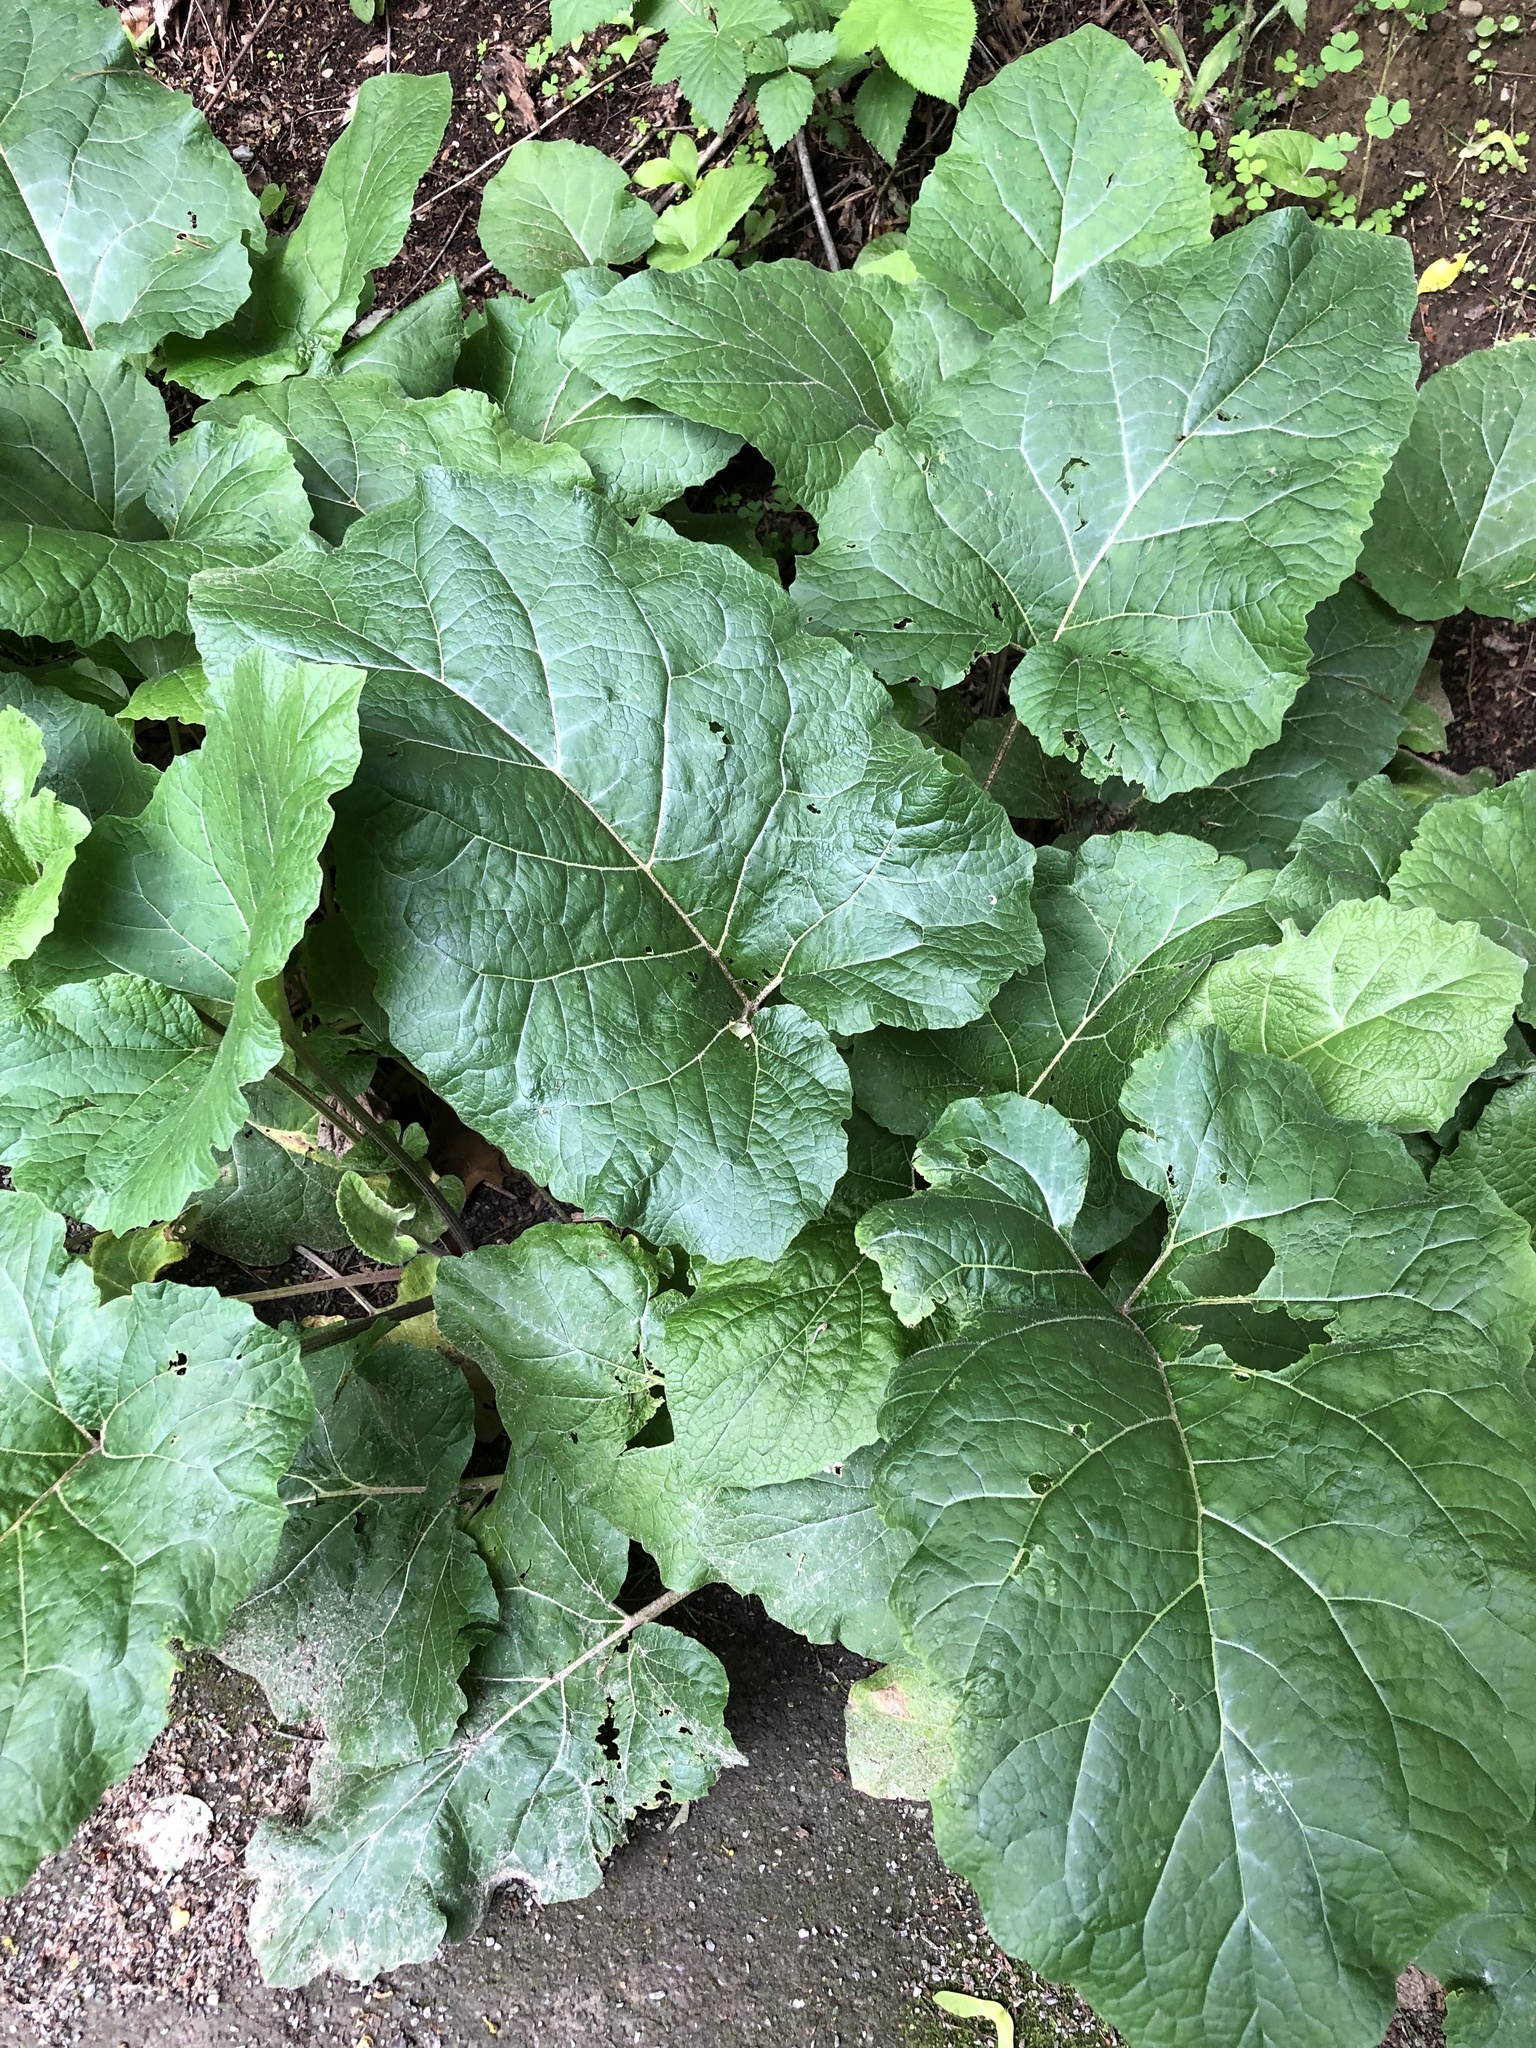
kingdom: Plantae
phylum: Tracheophyta
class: Magnoliopsida
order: Asterales
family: Asteraceae
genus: Arctium
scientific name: Arctium
